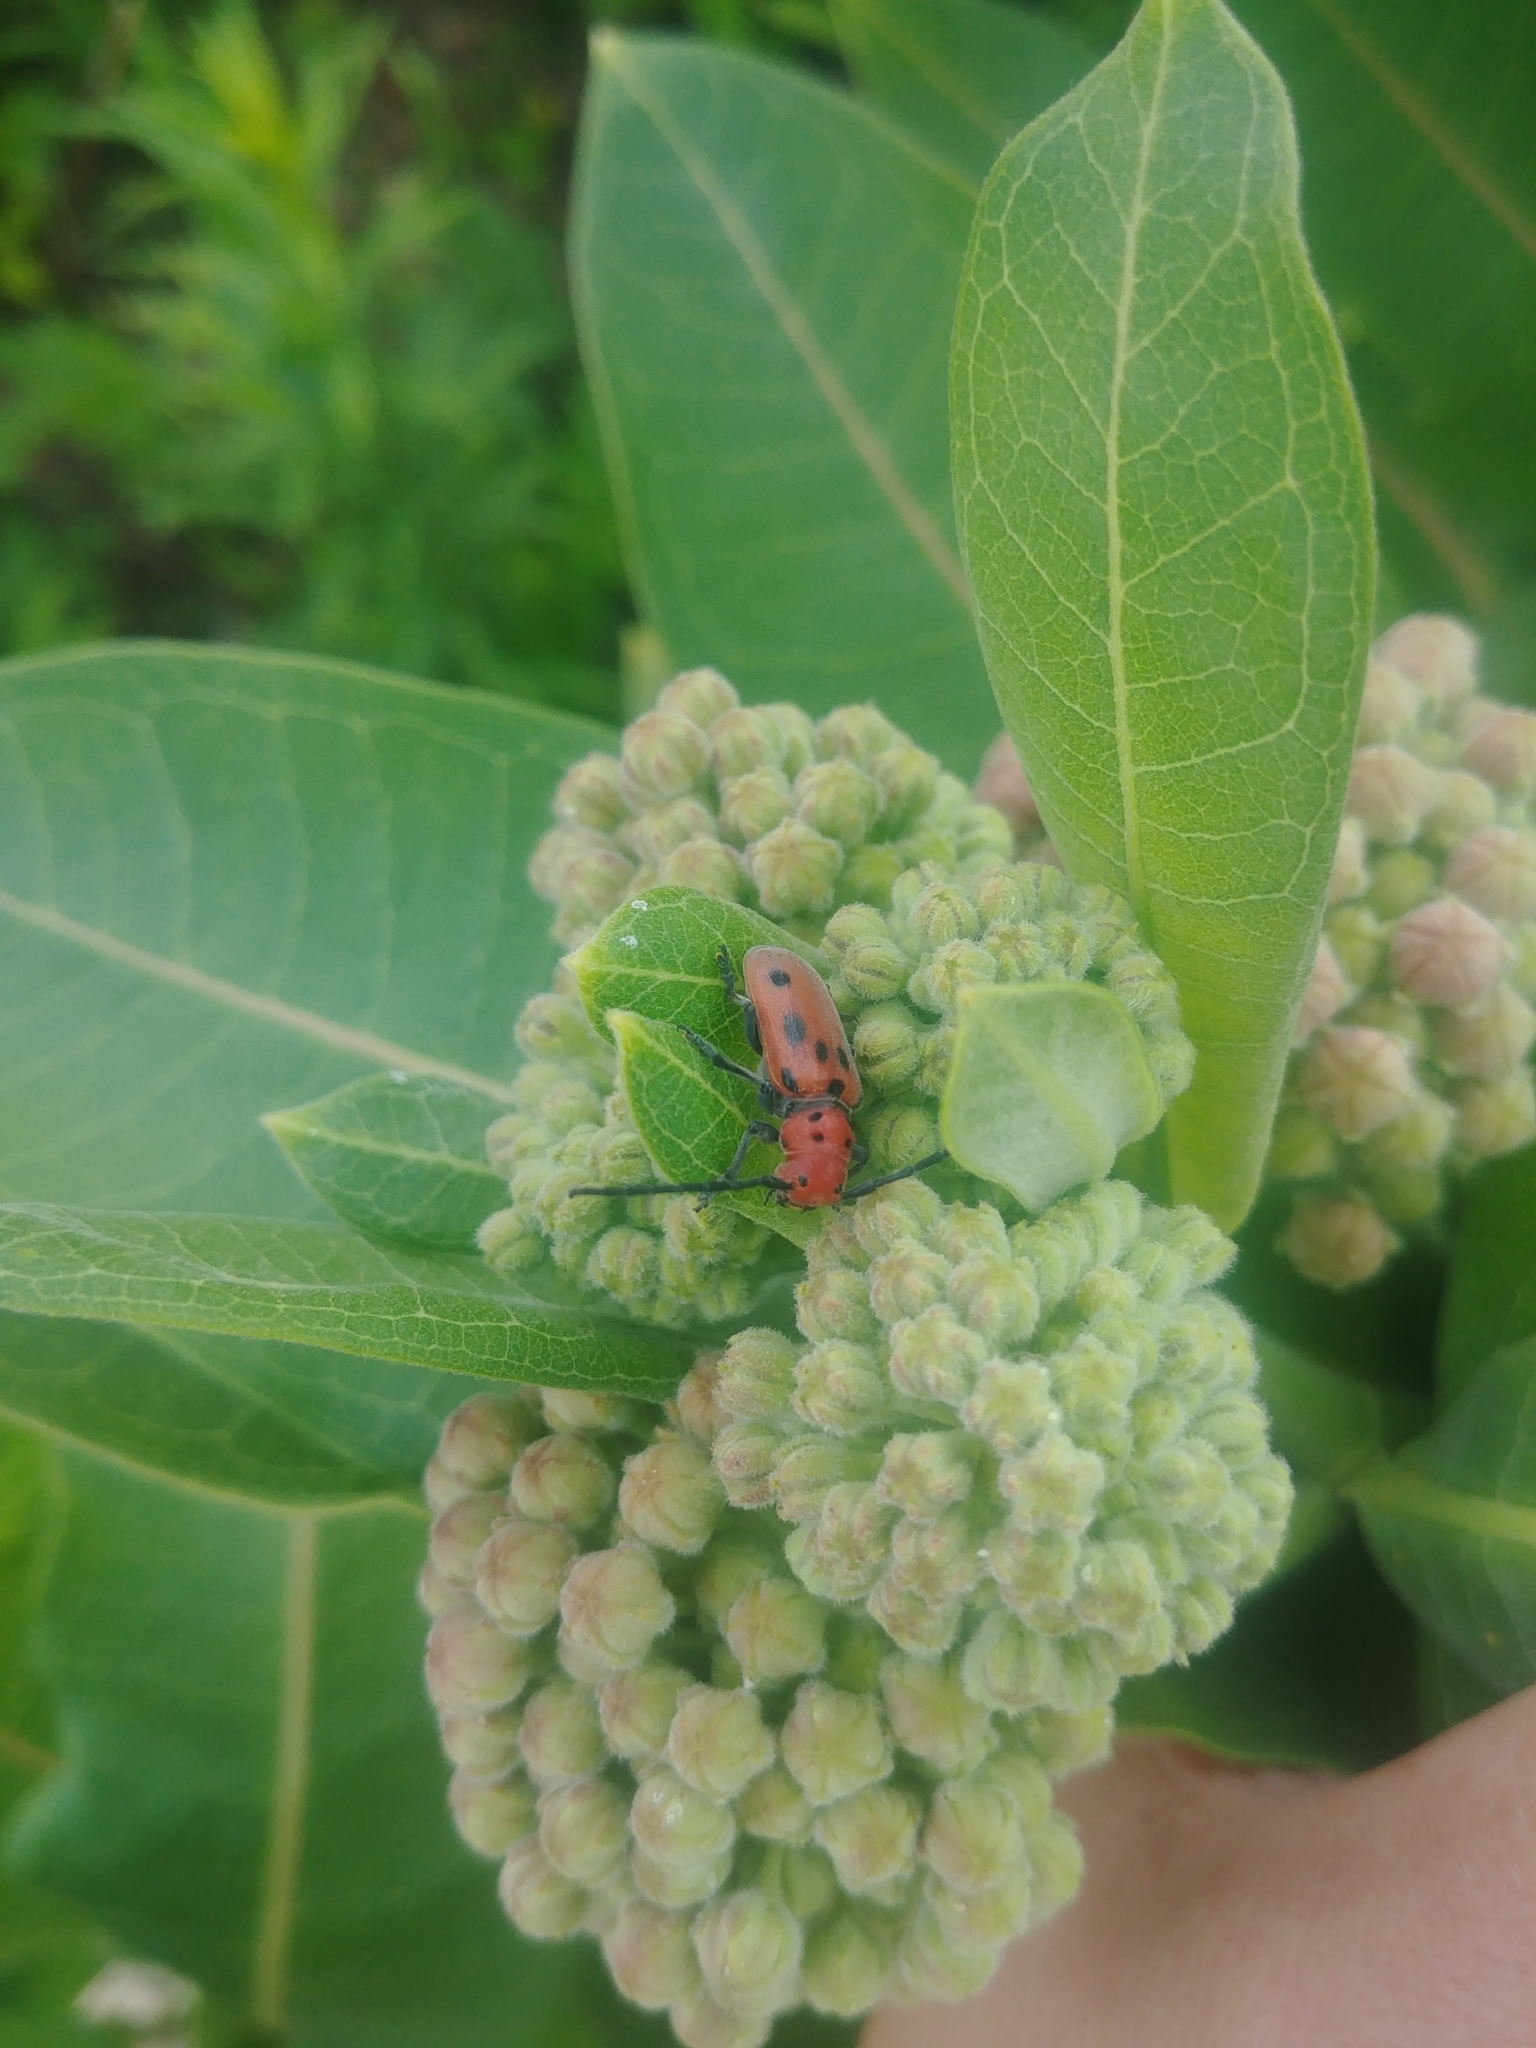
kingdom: Animalia
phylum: Arthropoda
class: Insecta
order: Coleoptera
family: Cerambycidae
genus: Tetraopes
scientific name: Tetraopes tetrophthalmus
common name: Red milkweed beetle
